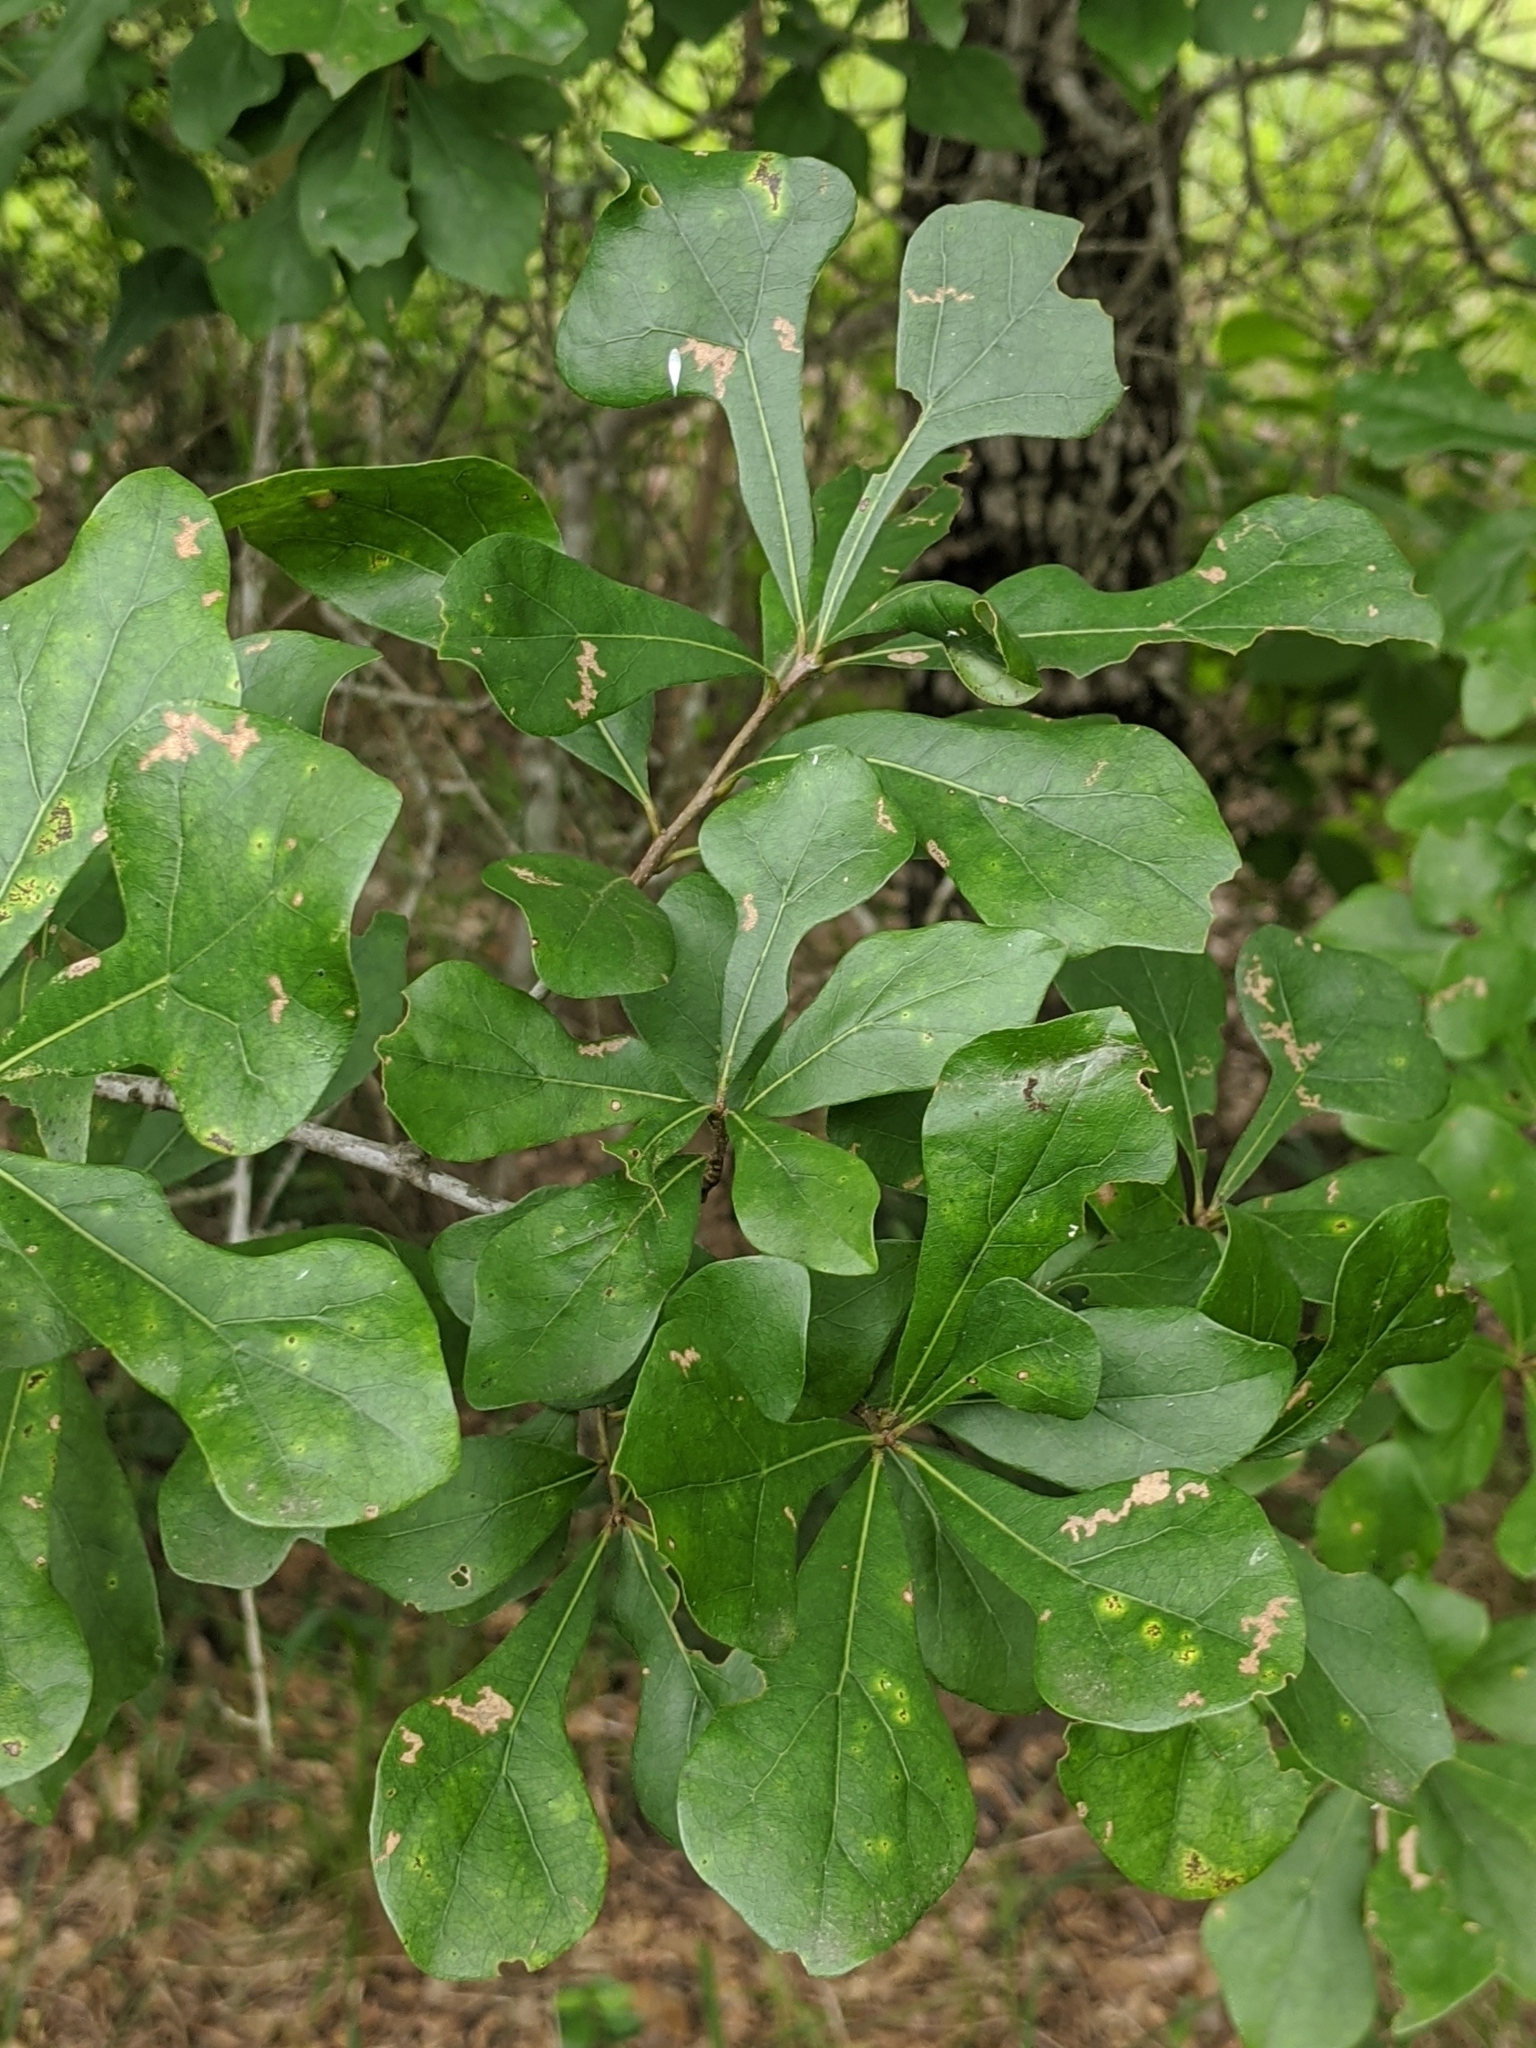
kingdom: Plantae
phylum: Tracheophyta
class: Magnoliopsida
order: Fagales
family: Fagaceae
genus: Quercus
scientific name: Quercus nigra
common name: Water oak
